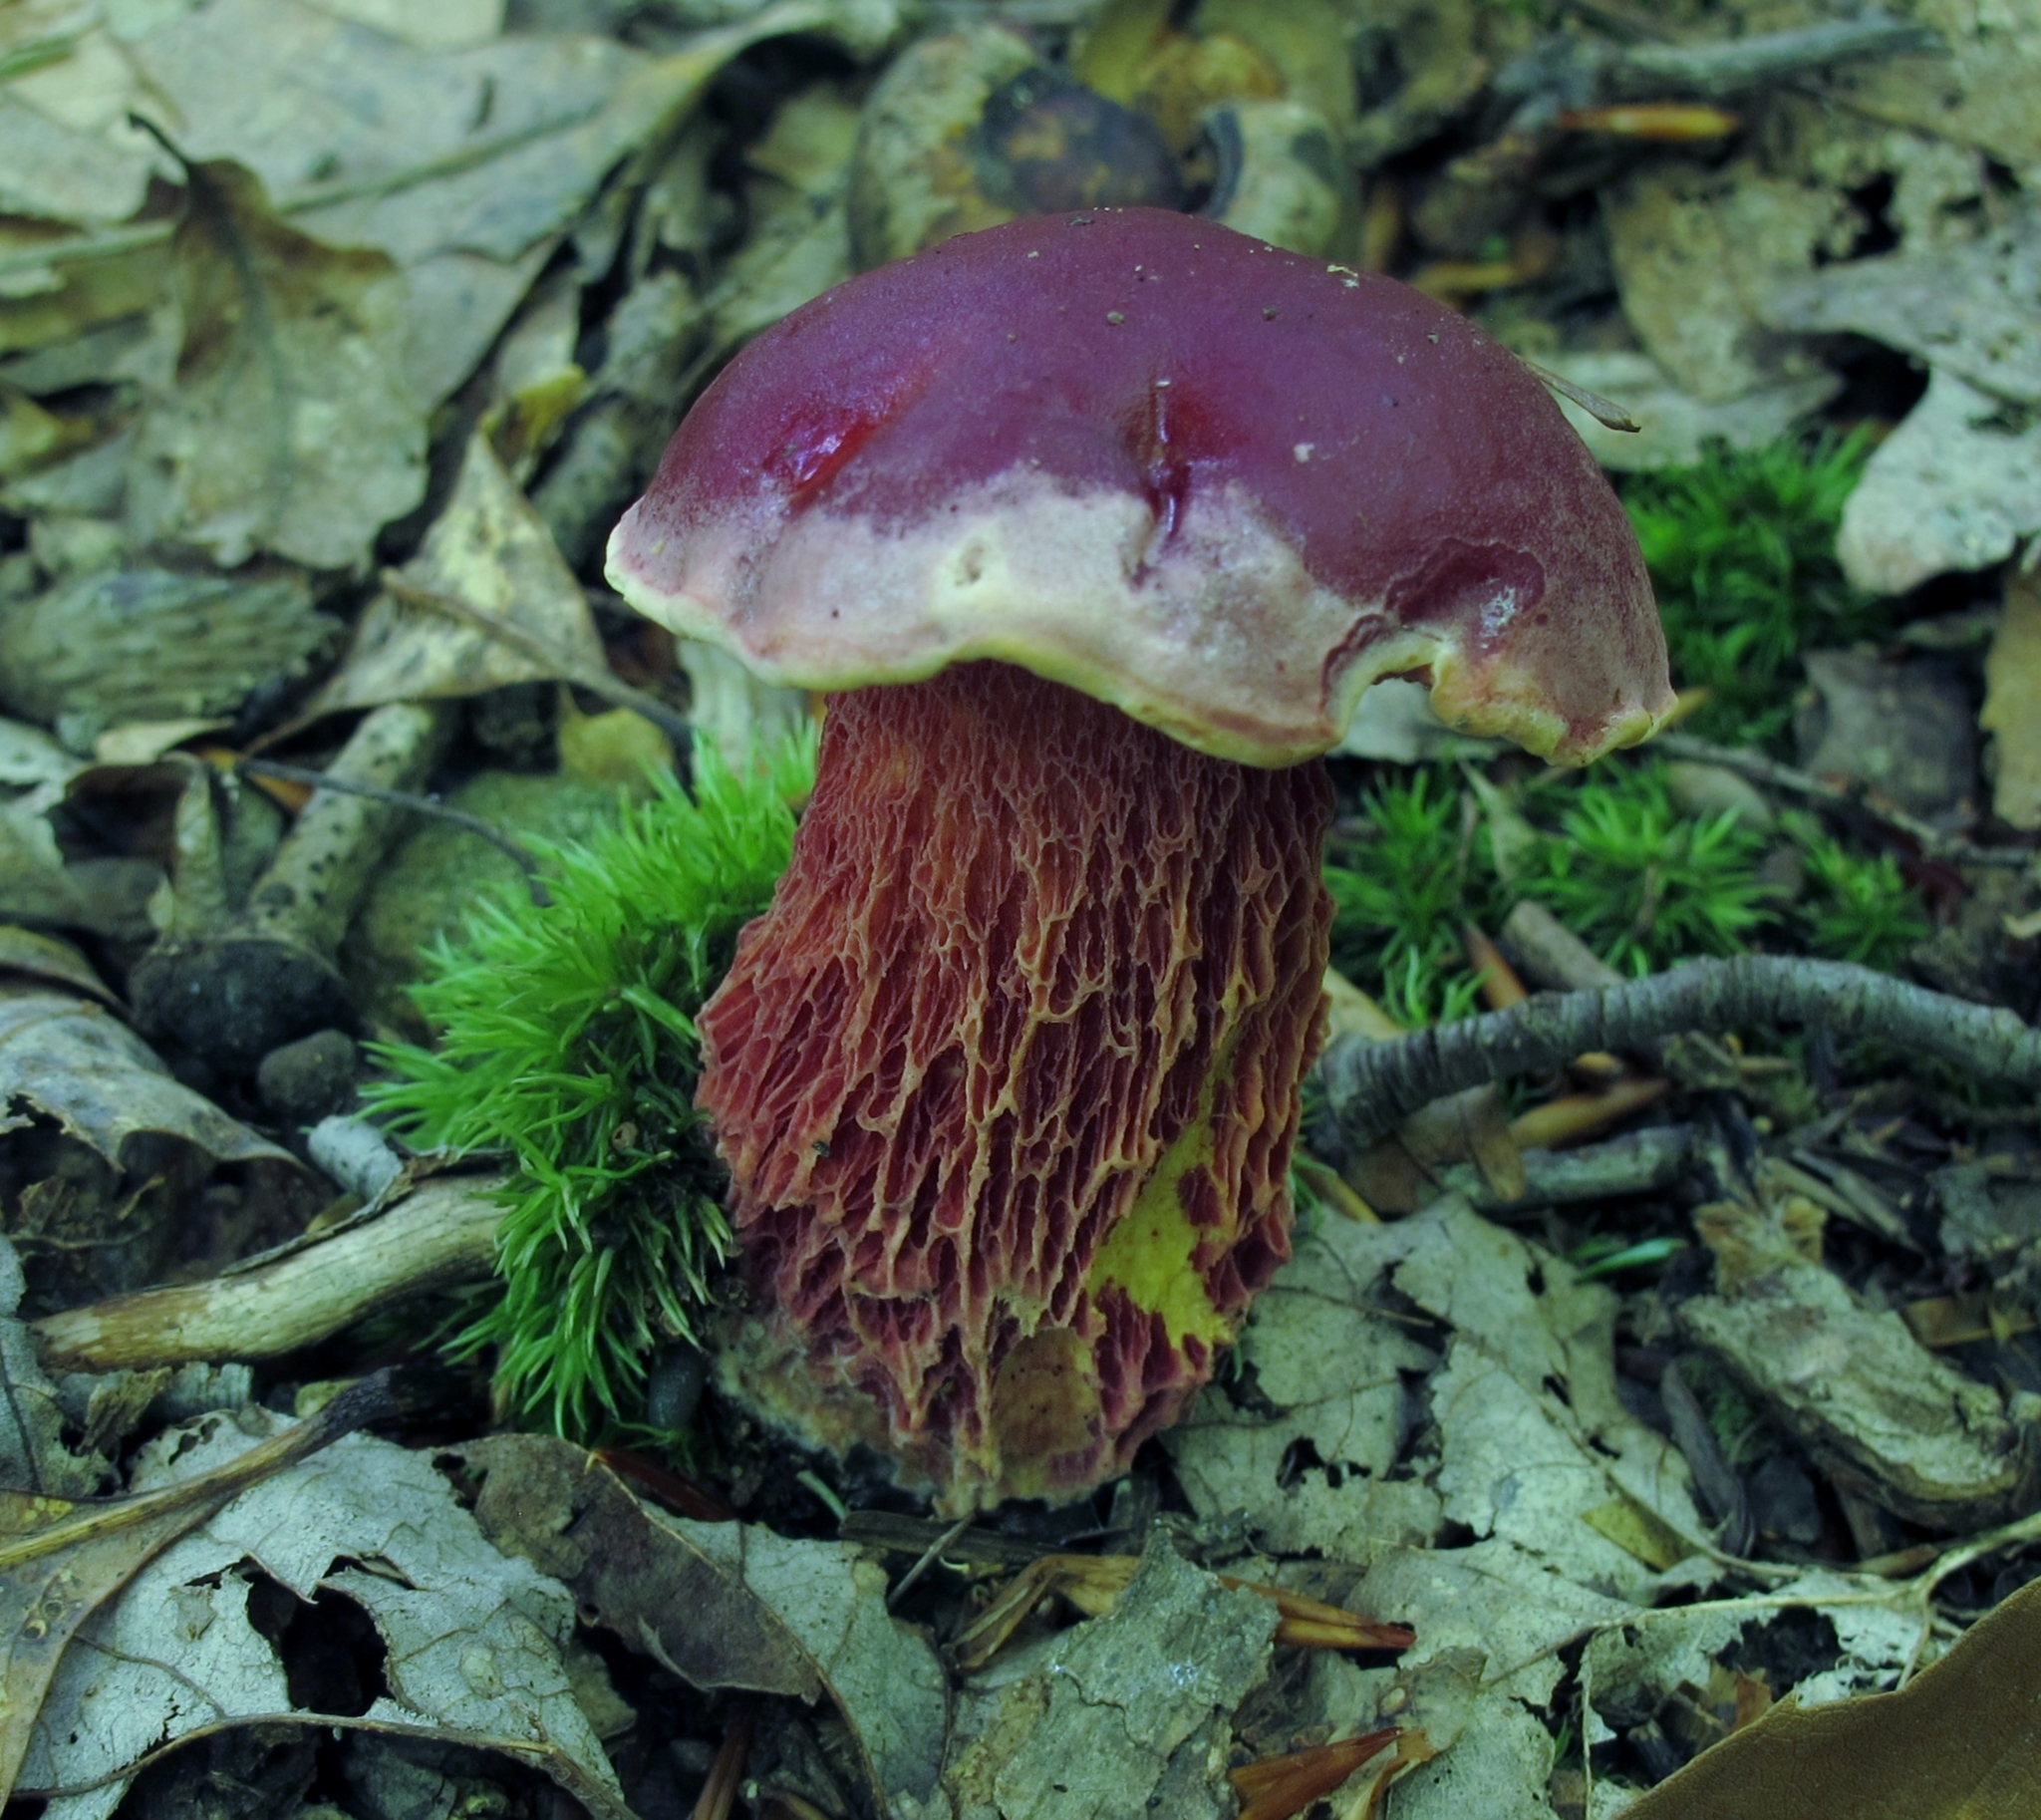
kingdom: Fungi
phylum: Basidiomycota
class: Agaricomycetes
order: Boletales
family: Boletaceae
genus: Butyriboletus
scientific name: Butyriboletus frostii
